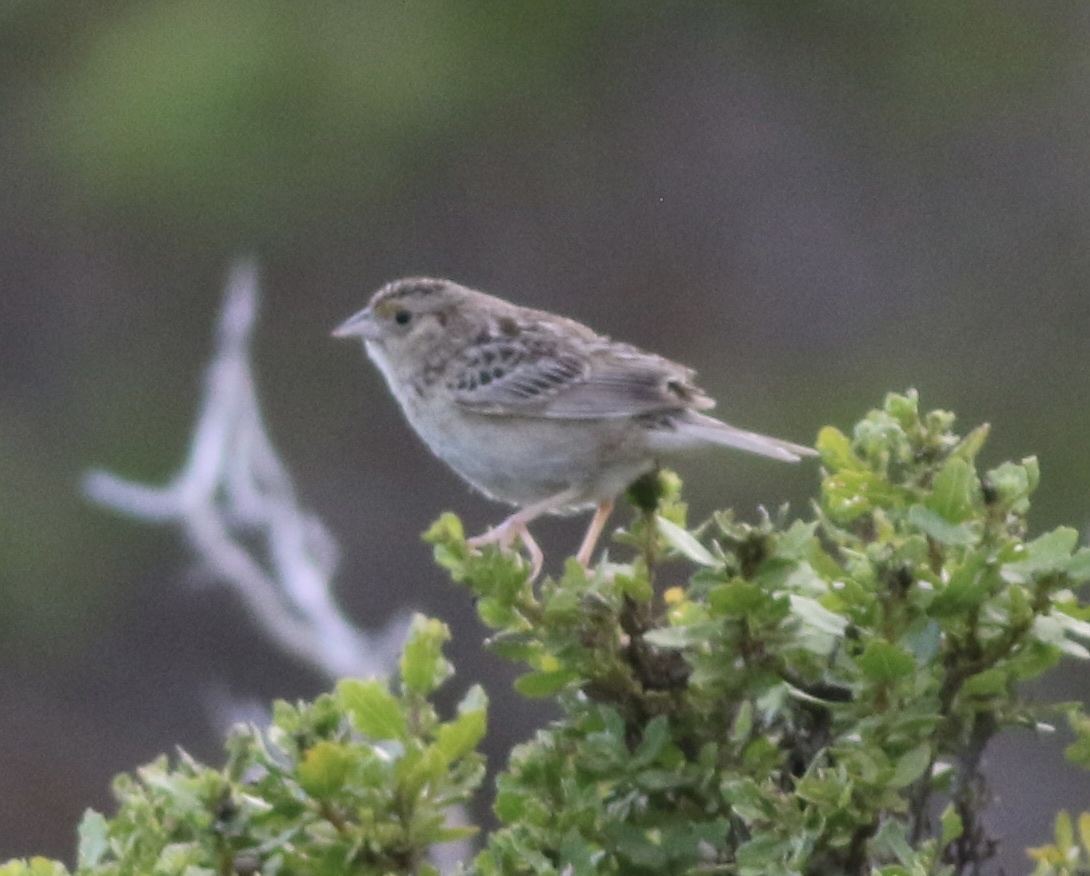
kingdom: Animalia
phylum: Chordata
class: Aves
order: Passeriformes
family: Passerellidae
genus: Ammodramus
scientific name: Ammodramus savannarum
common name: Grasshopper sparrow
